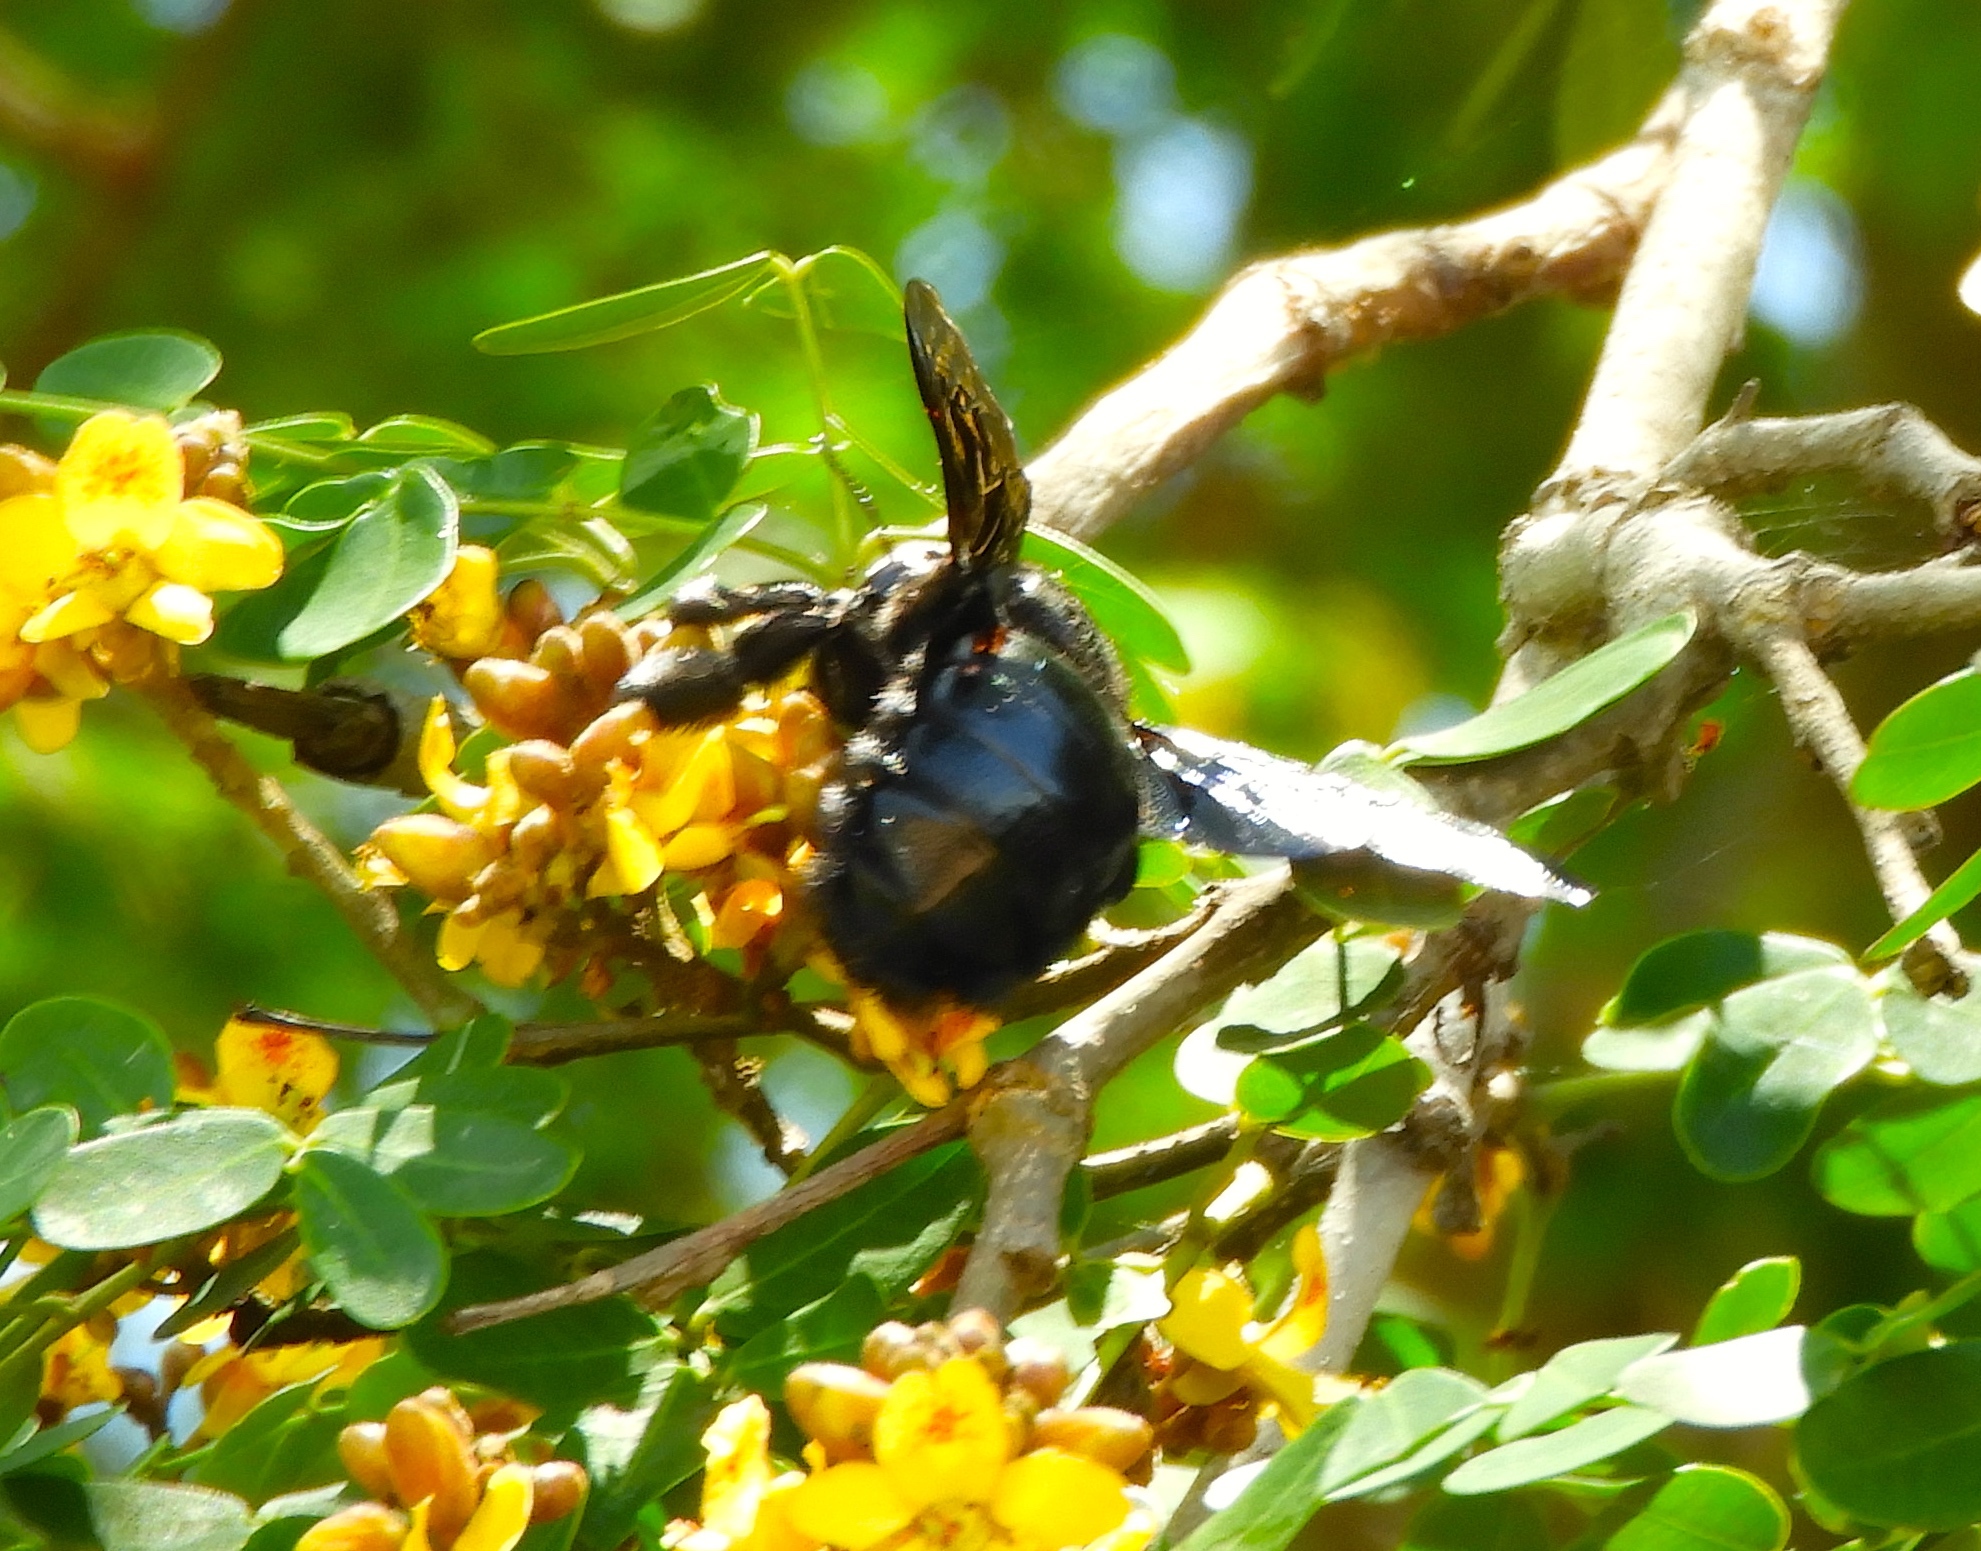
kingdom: Animalia
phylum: Arthropoda
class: Insecta
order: Hymenoptera
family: Apidae
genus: Xylocopa
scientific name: Xylocopa
